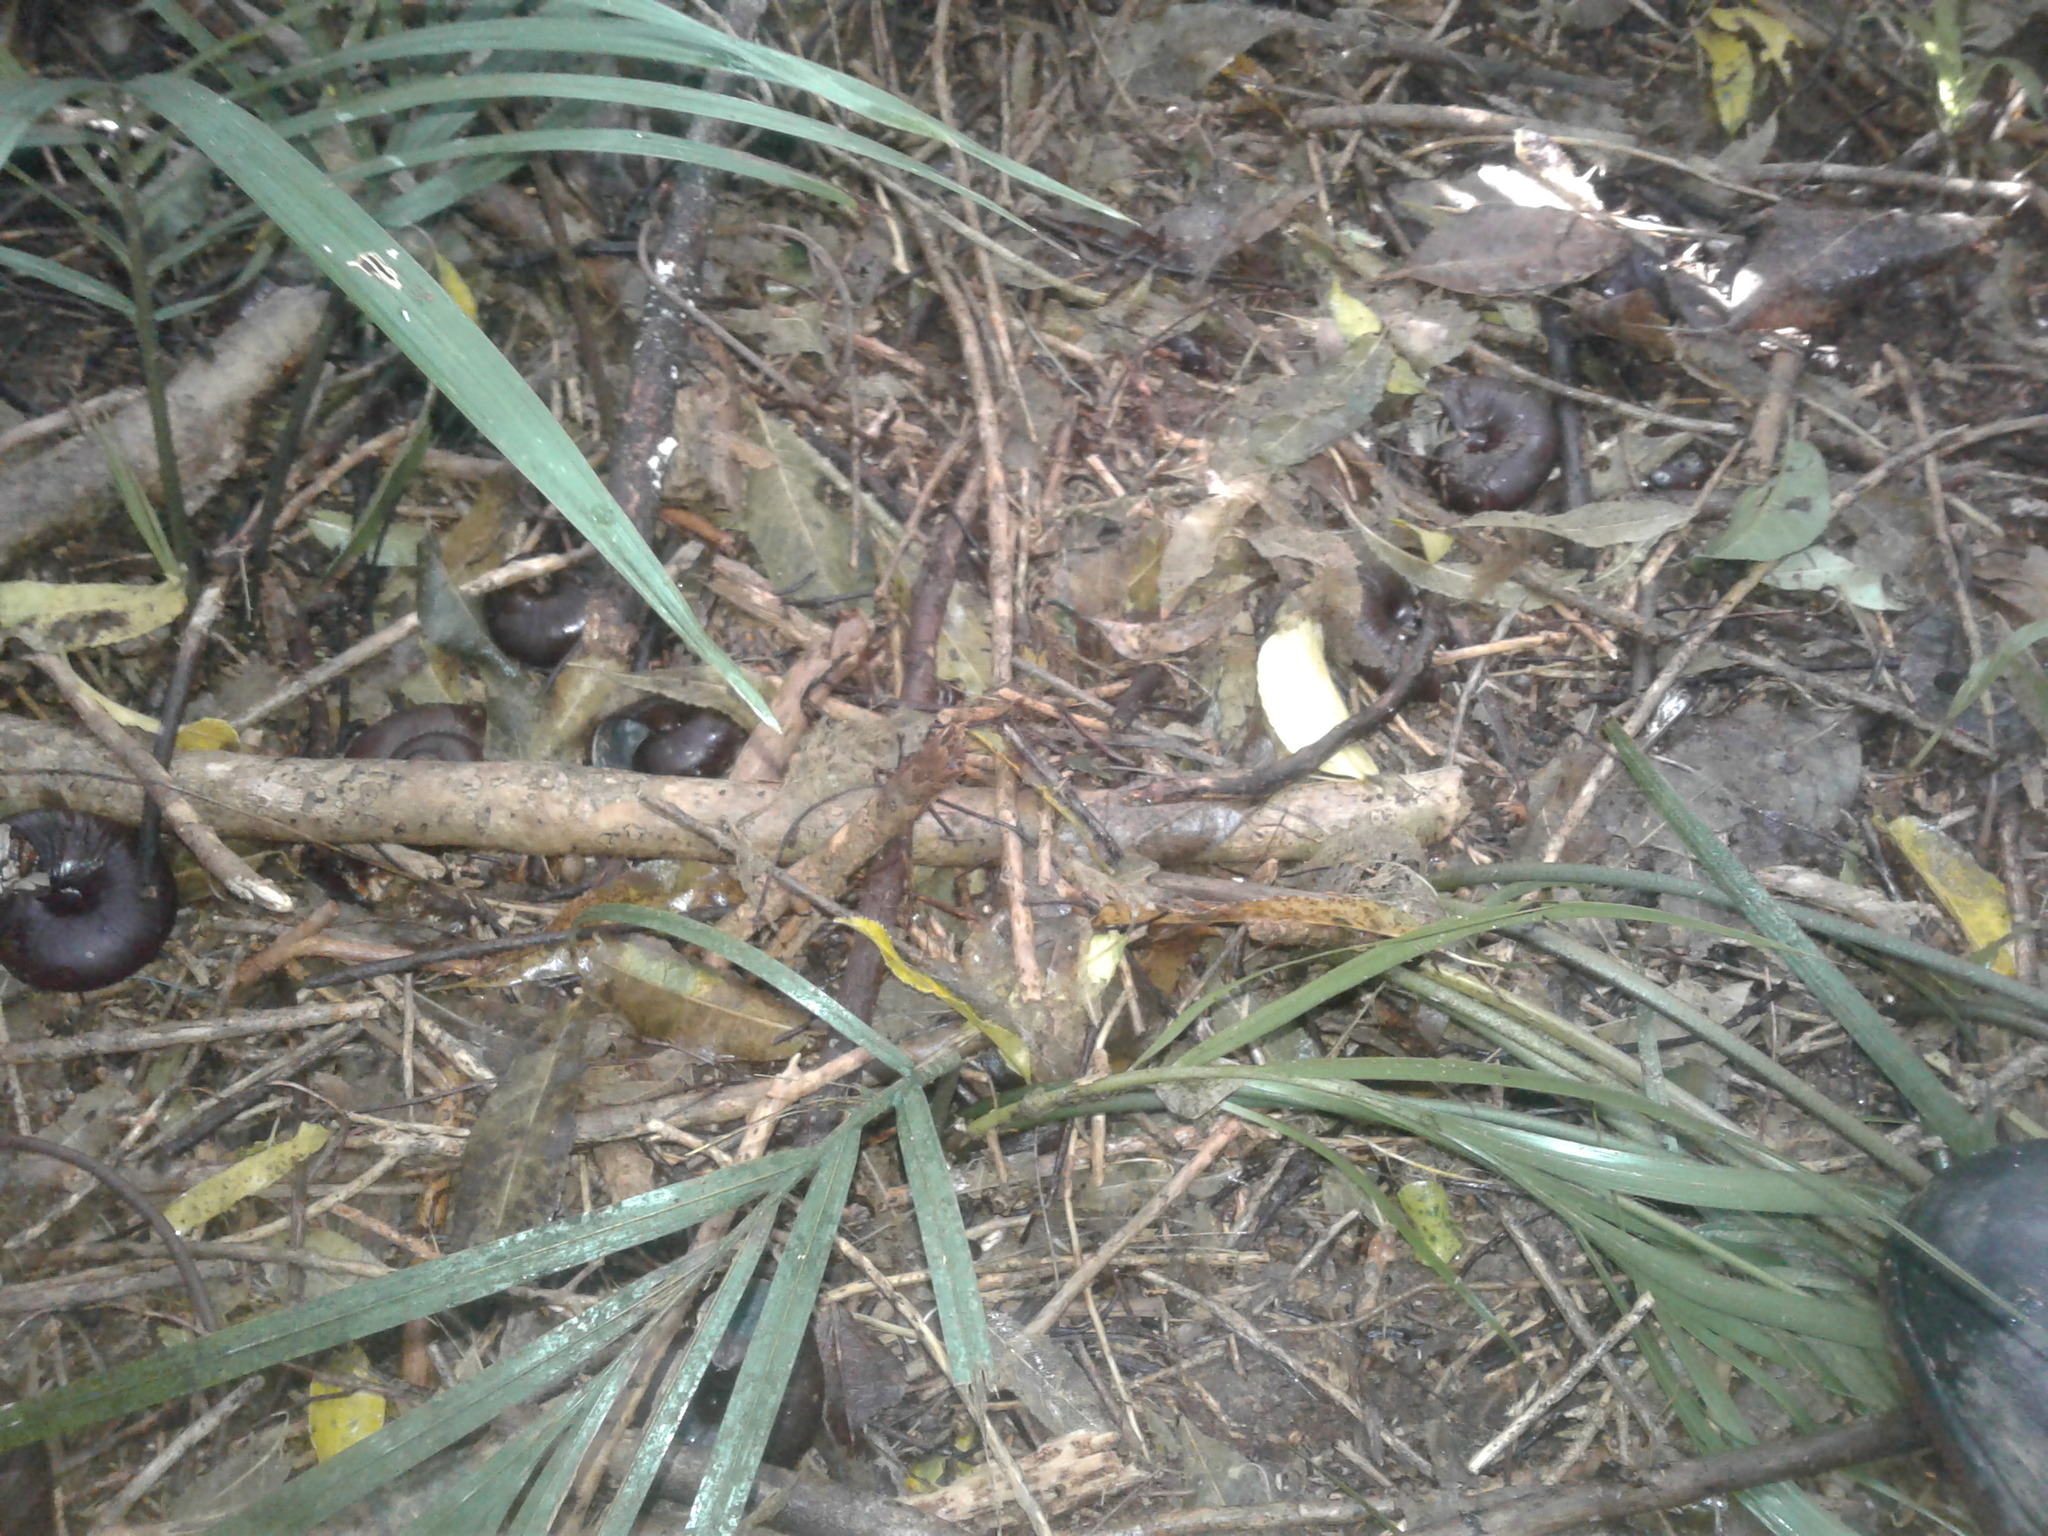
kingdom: Animalia
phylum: Mollusca
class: Gastropoda
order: Stylommatophora
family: Rhytididae
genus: Powelliphanta
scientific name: Powelliphanta annectens
